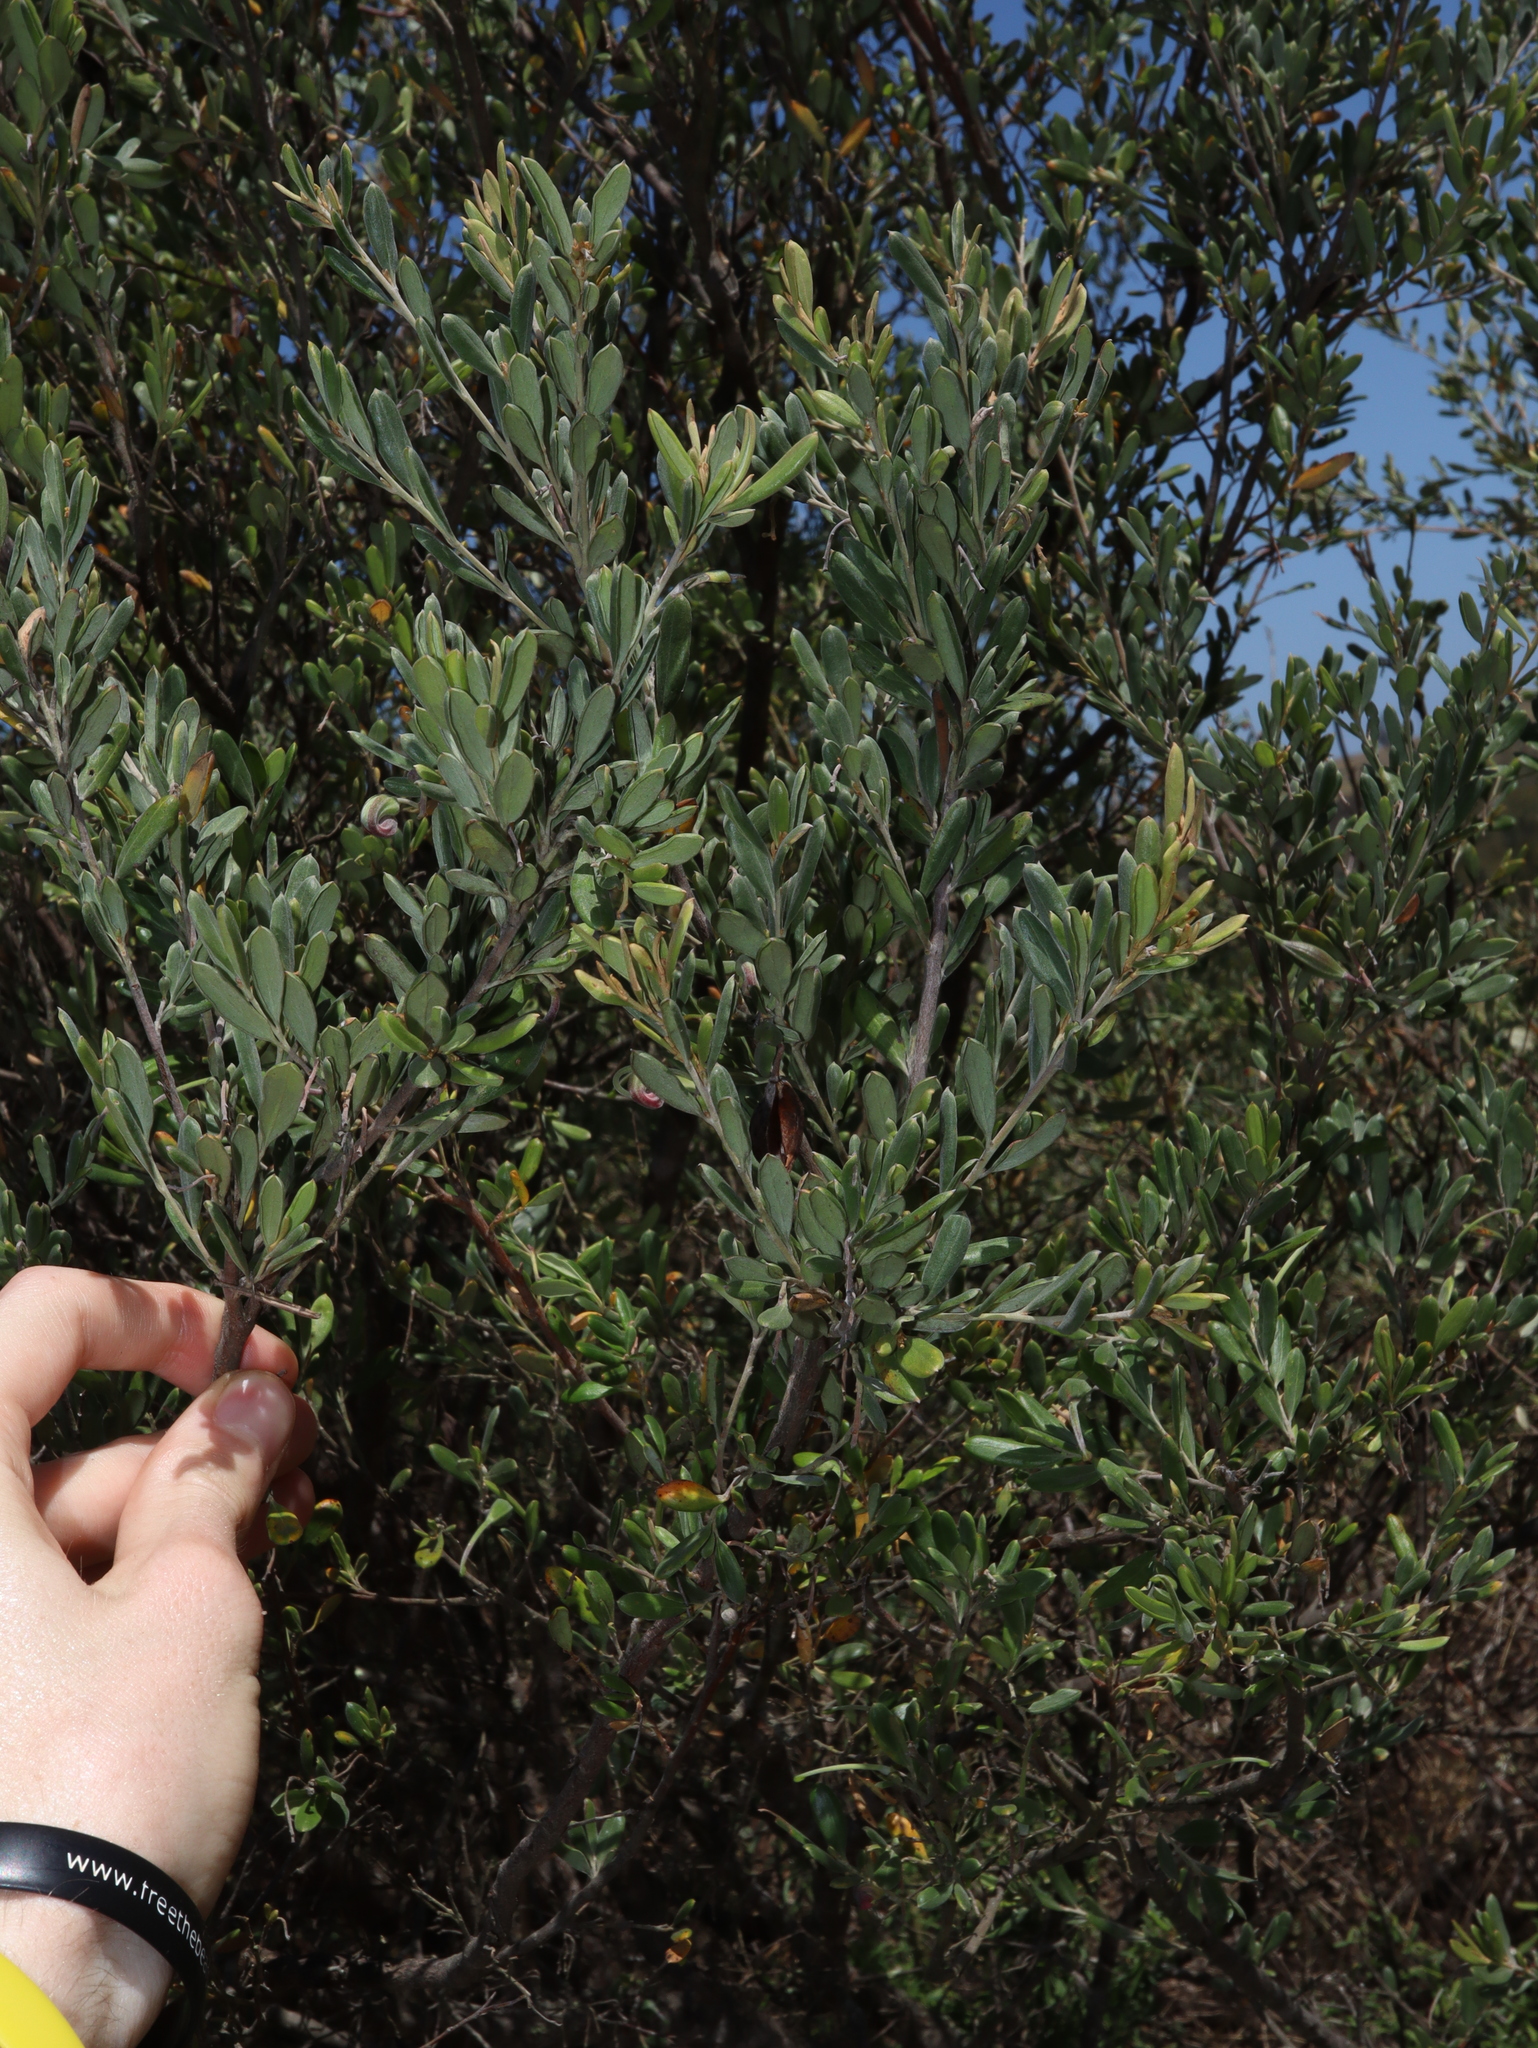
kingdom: Plantae
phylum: Tracheophyta
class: Magnoliopsida
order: Proteales
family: Proteaceae
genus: Grevillea
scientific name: Grevillea arenaria
